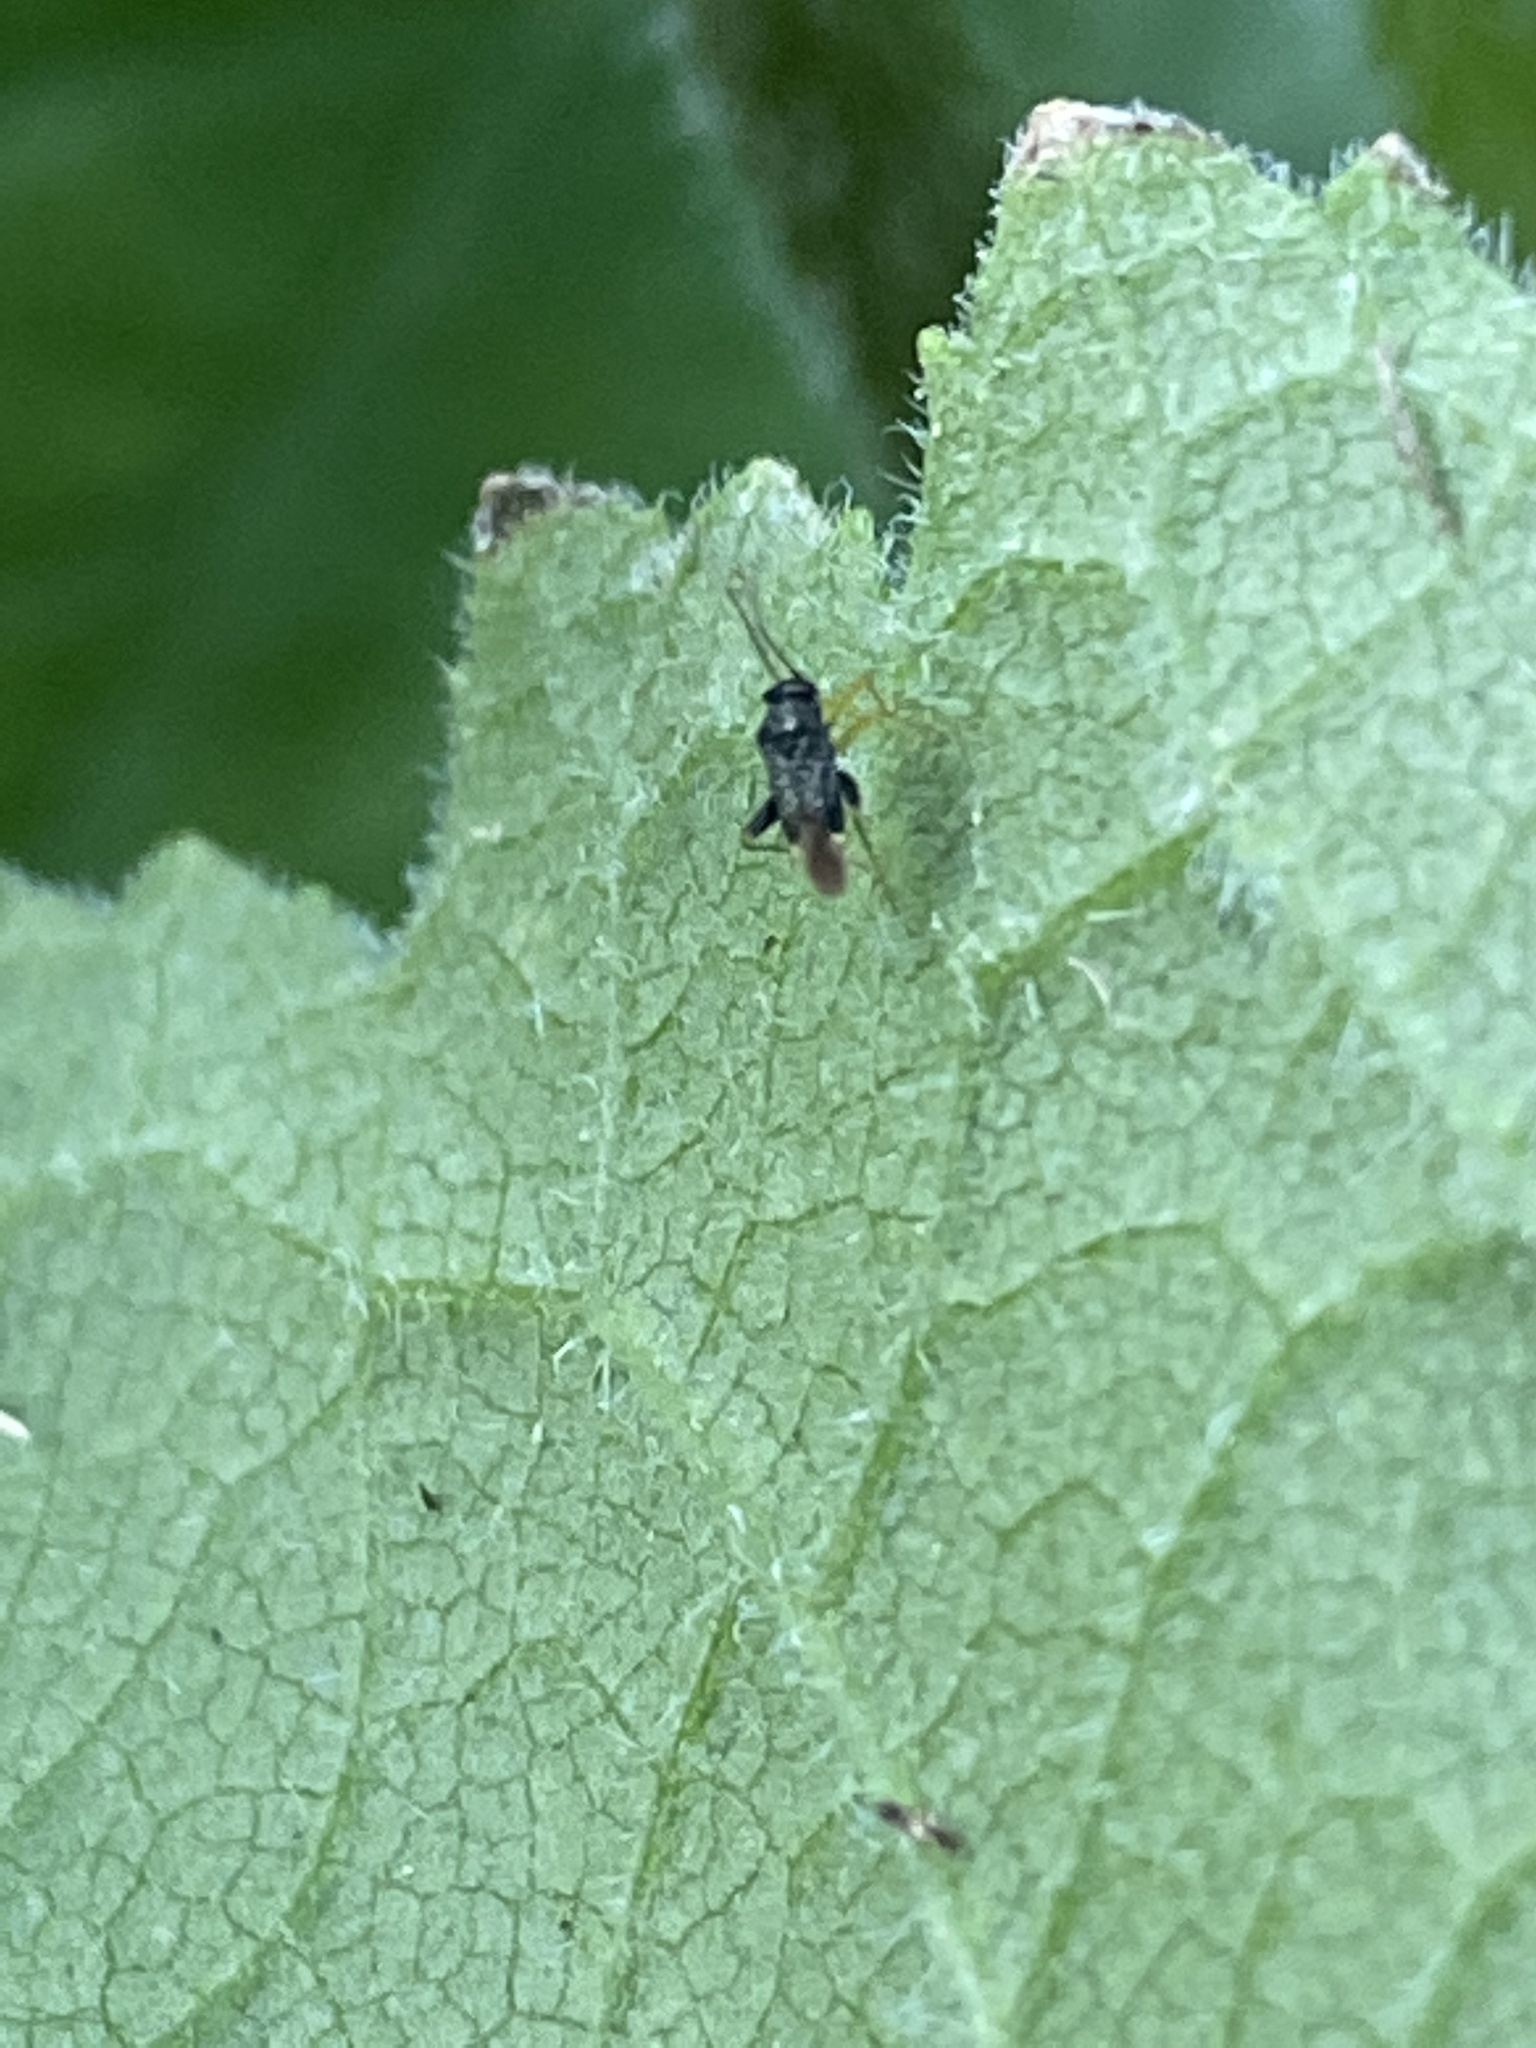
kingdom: Animalia
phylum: Arthropoda
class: Insecta
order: Hemiptera
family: Miridae
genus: Microtechnites
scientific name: Microtechnites bractatus
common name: Garden fleahopper
